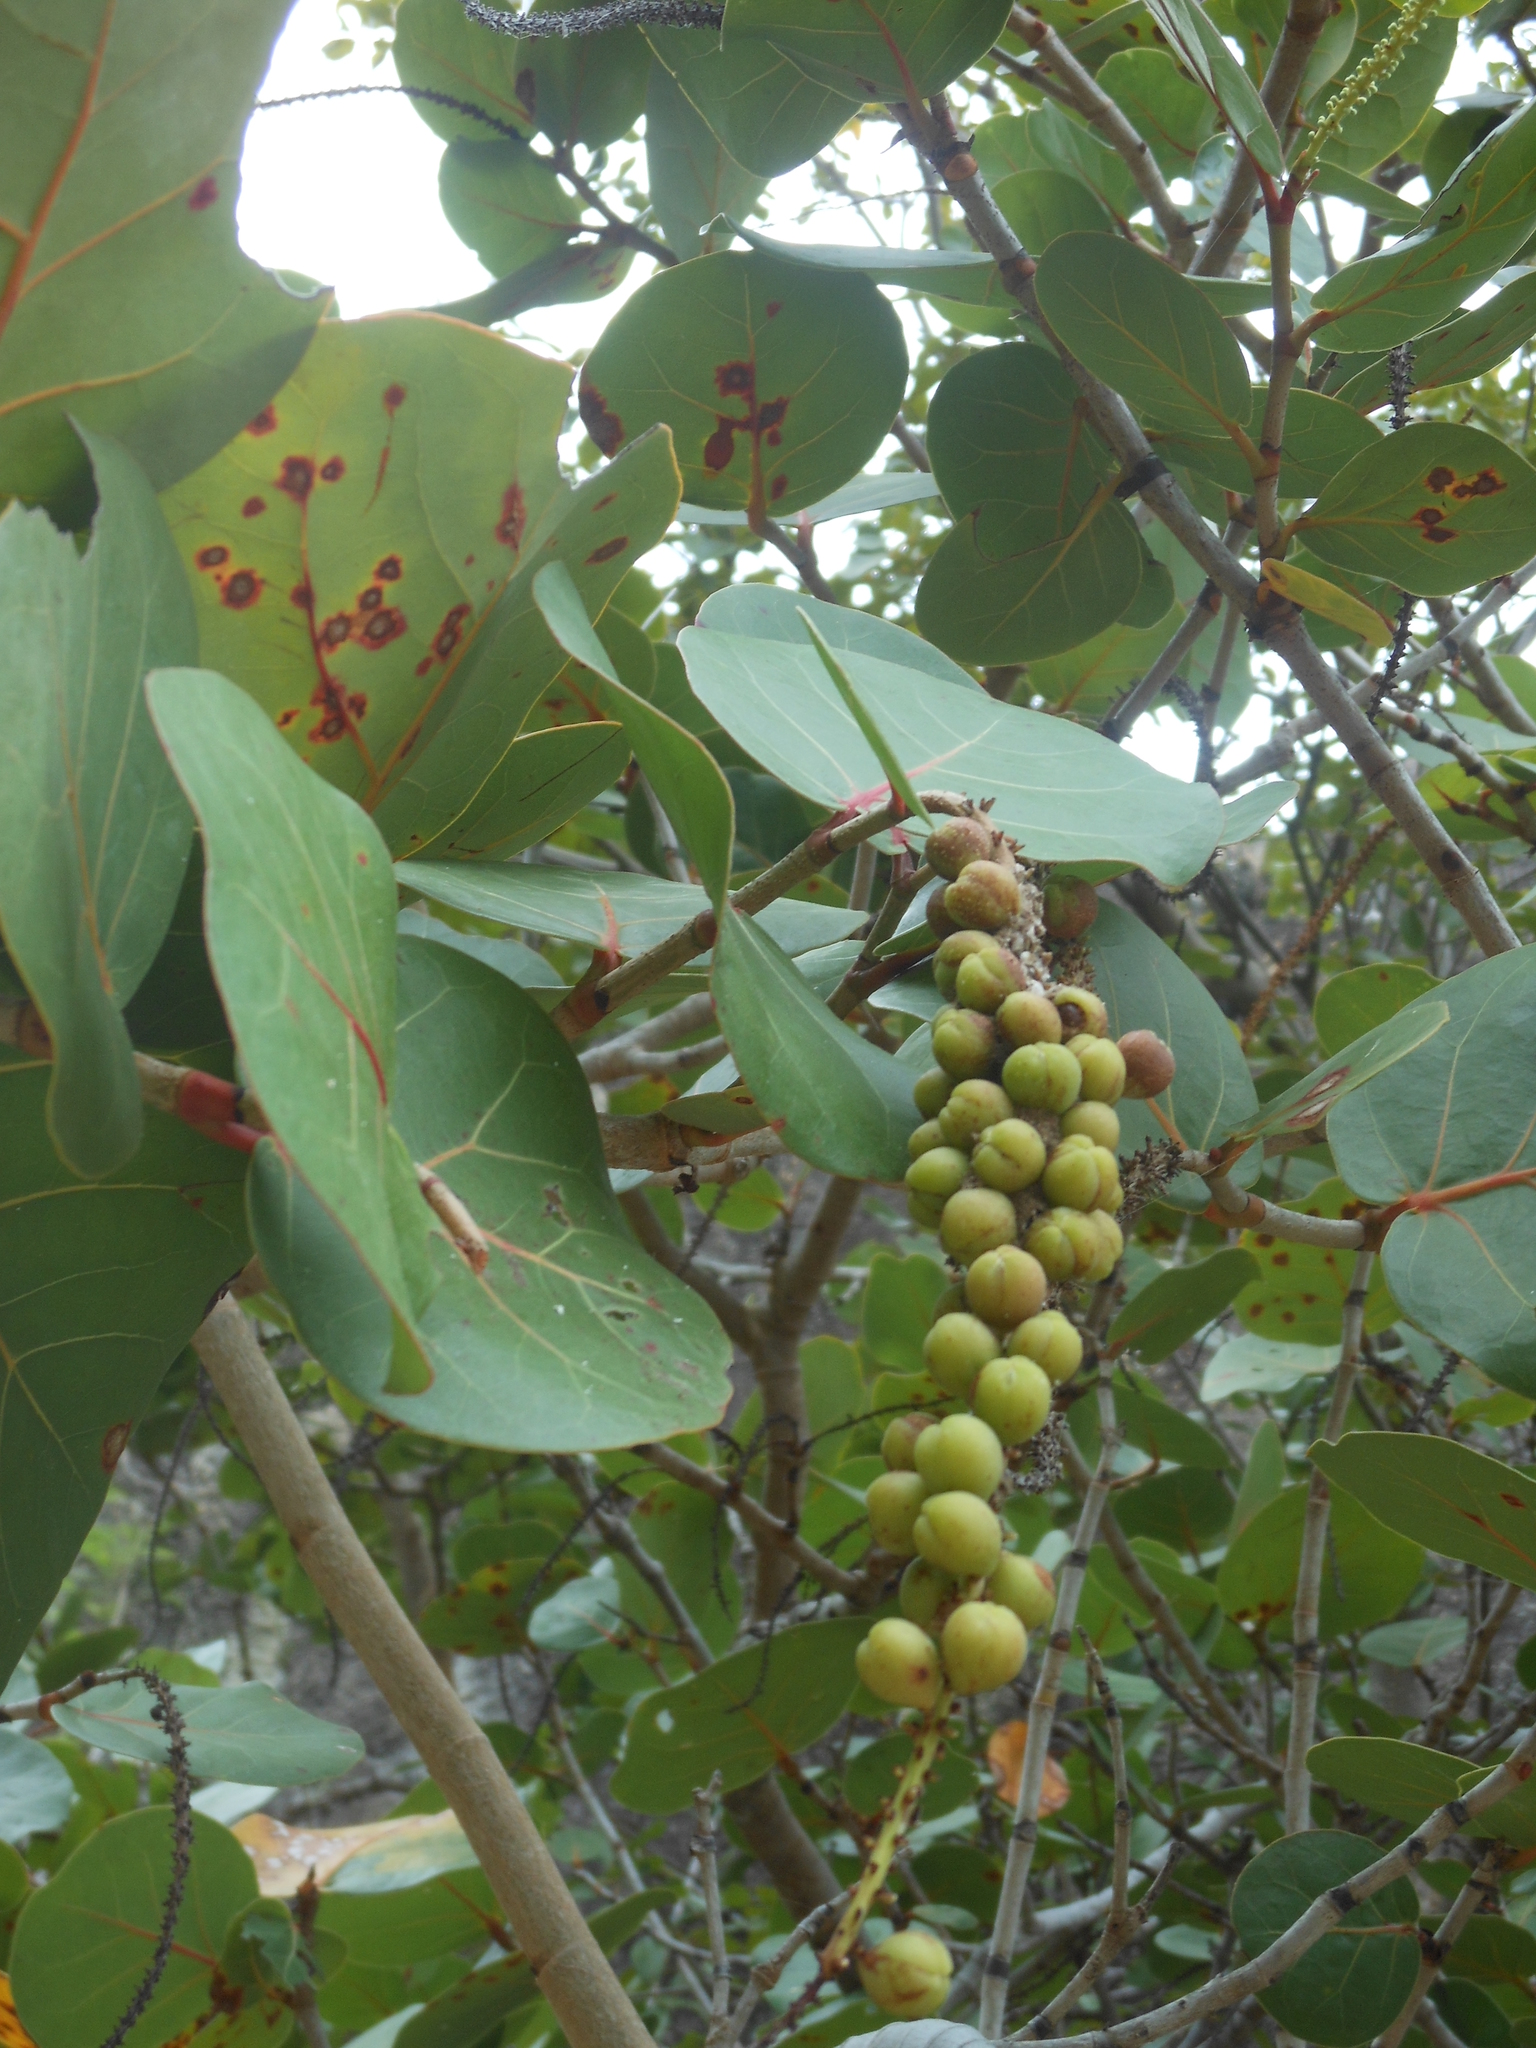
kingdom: Plantae
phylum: Tracheophyta
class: Magnoliopsida
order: Caryophyllales
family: Polygonaceae
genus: Coccoloba
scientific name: Coccoloba uvifera
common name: Seagrape
